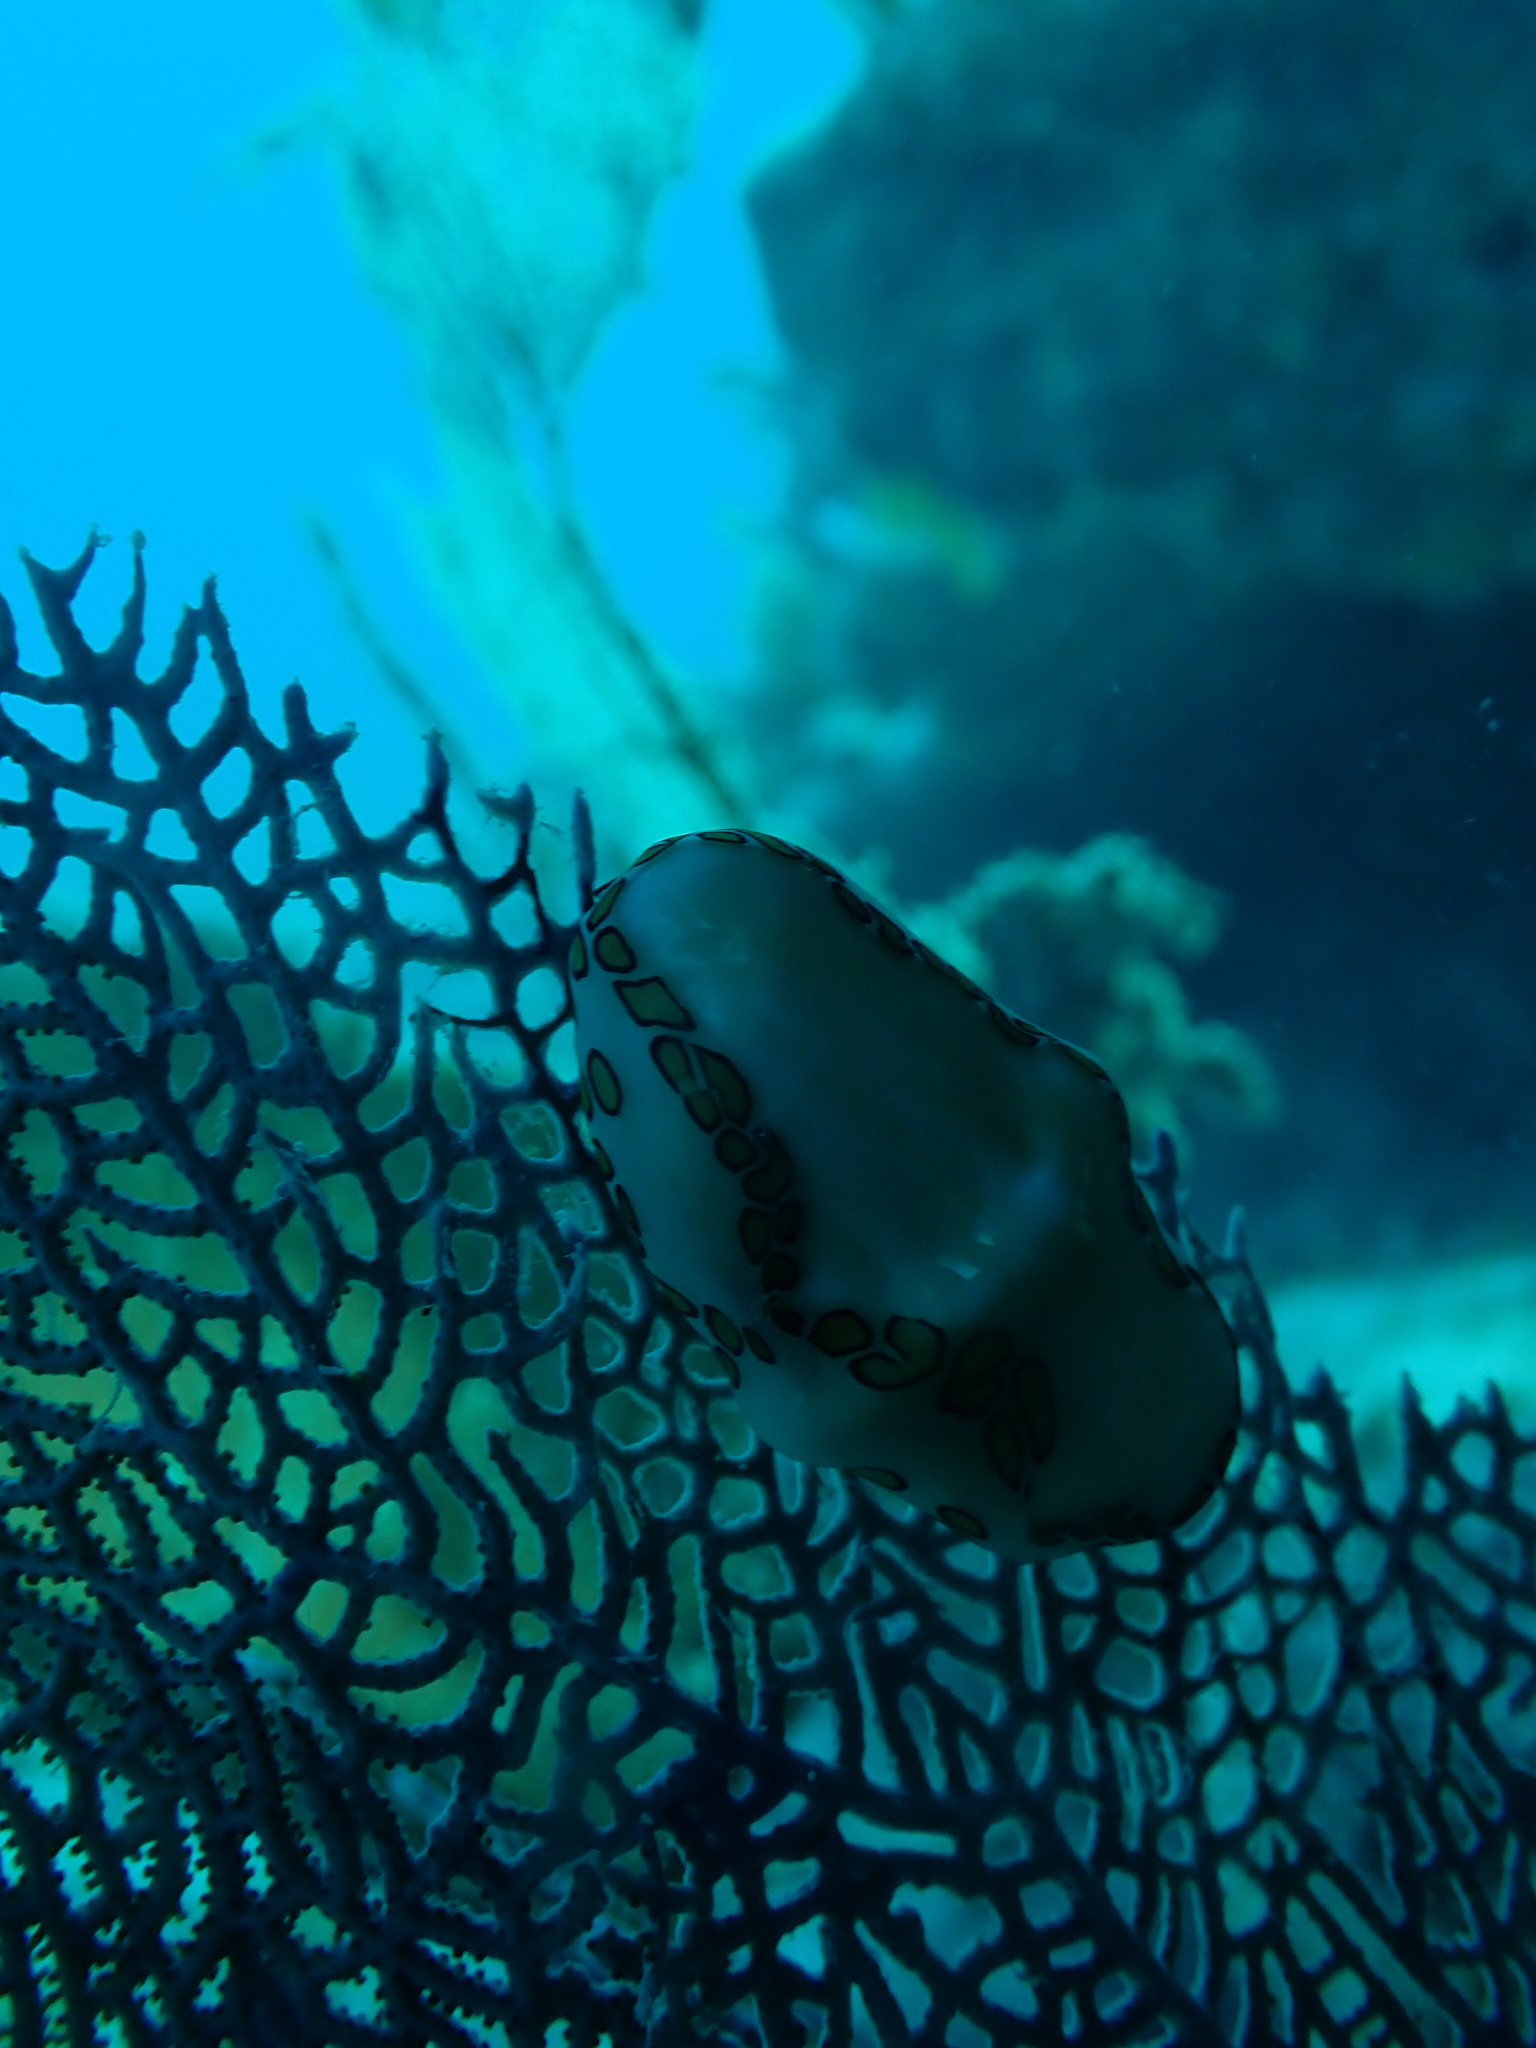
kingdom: Animalia
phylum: Mollusca
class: Gastropoda
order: Littorinimorpha
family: Ovulidae
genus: Cyphoma
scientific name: Cyphoma gibbosum
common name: Flamingo tongue
